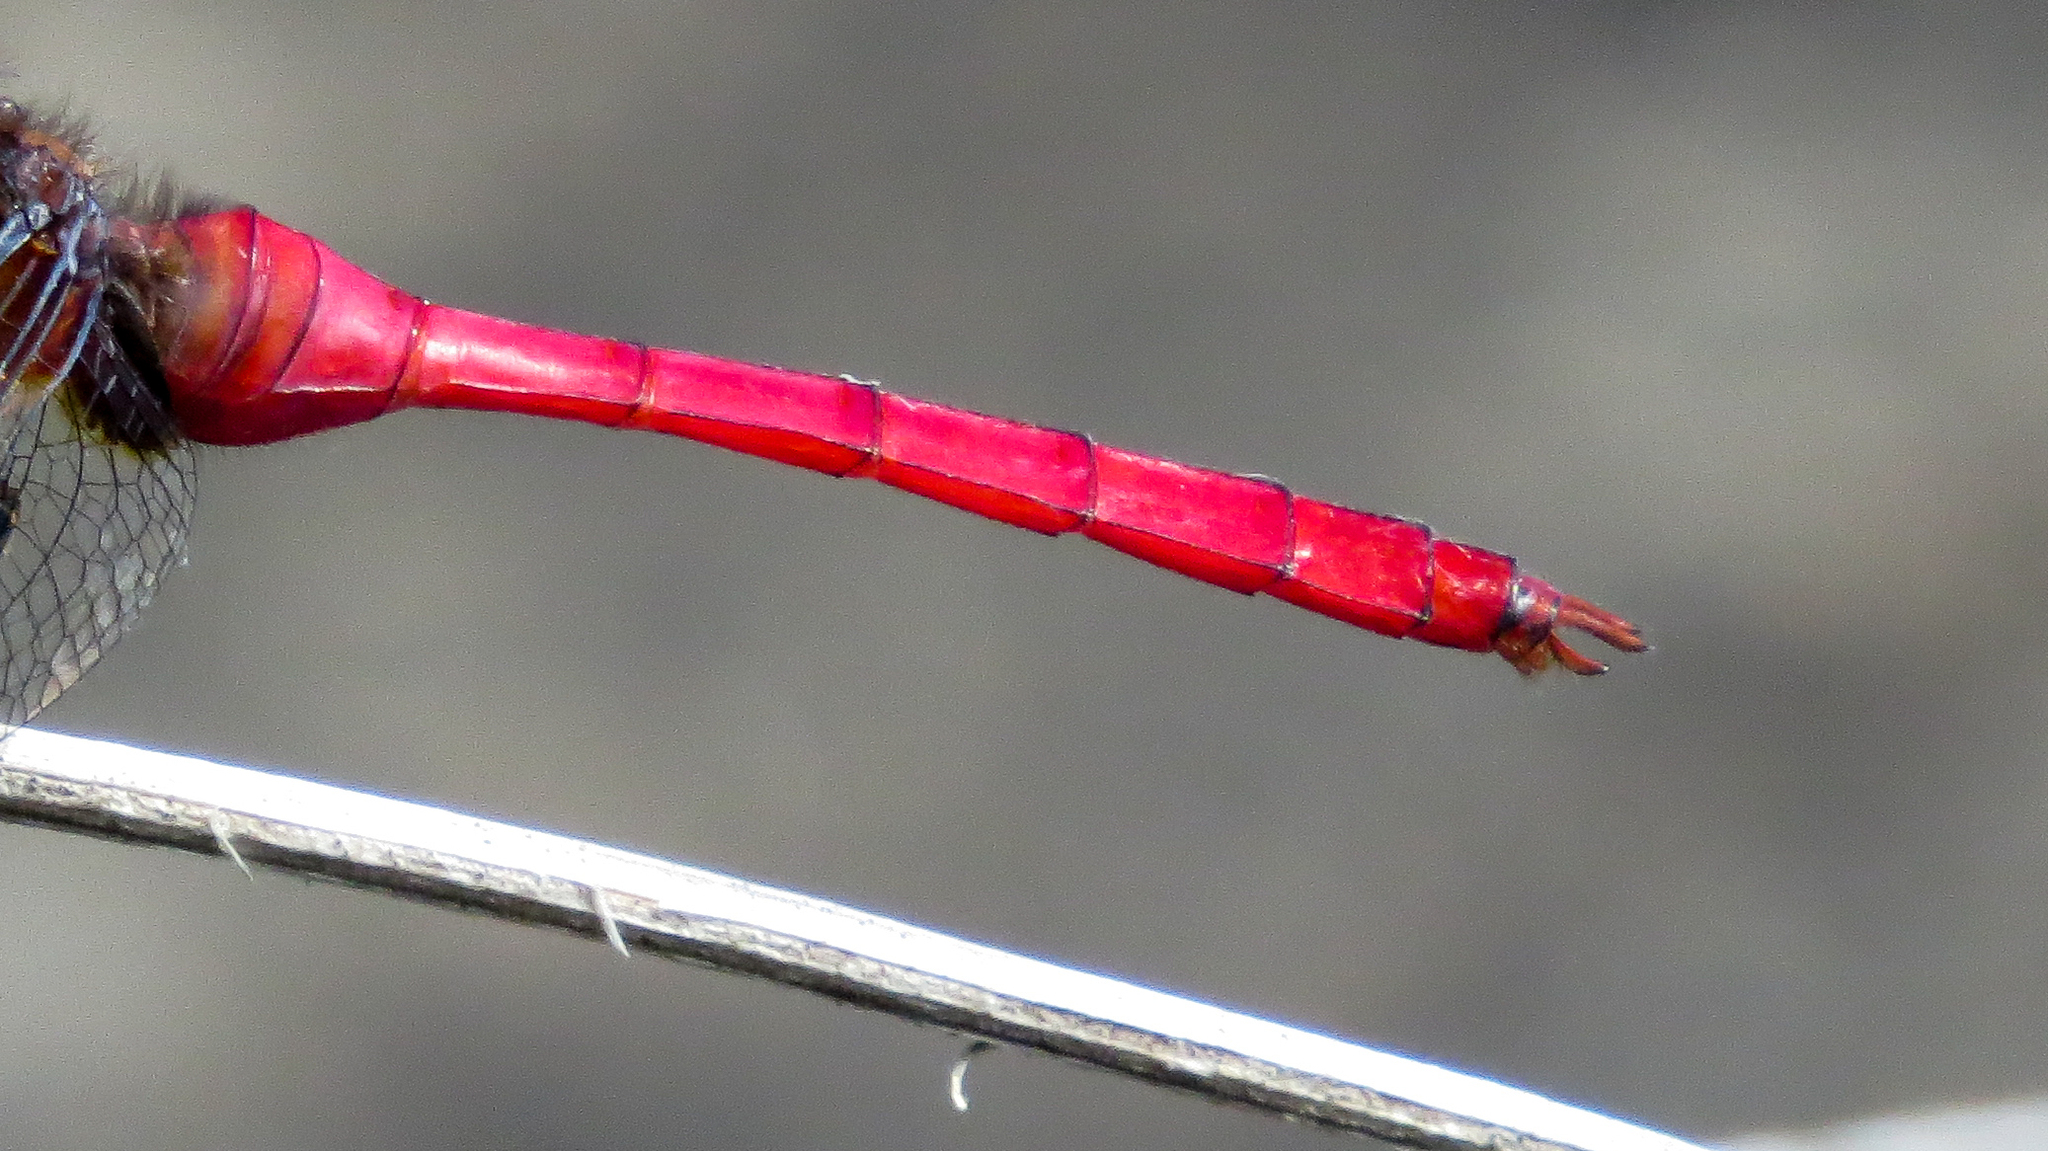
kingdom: Animalia
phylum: Arthropoda
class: Insecta
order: Odonata
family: Libellulidae
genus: Orthetrum
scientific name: Orthetrum villosovittatum
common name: Firery skimmer
